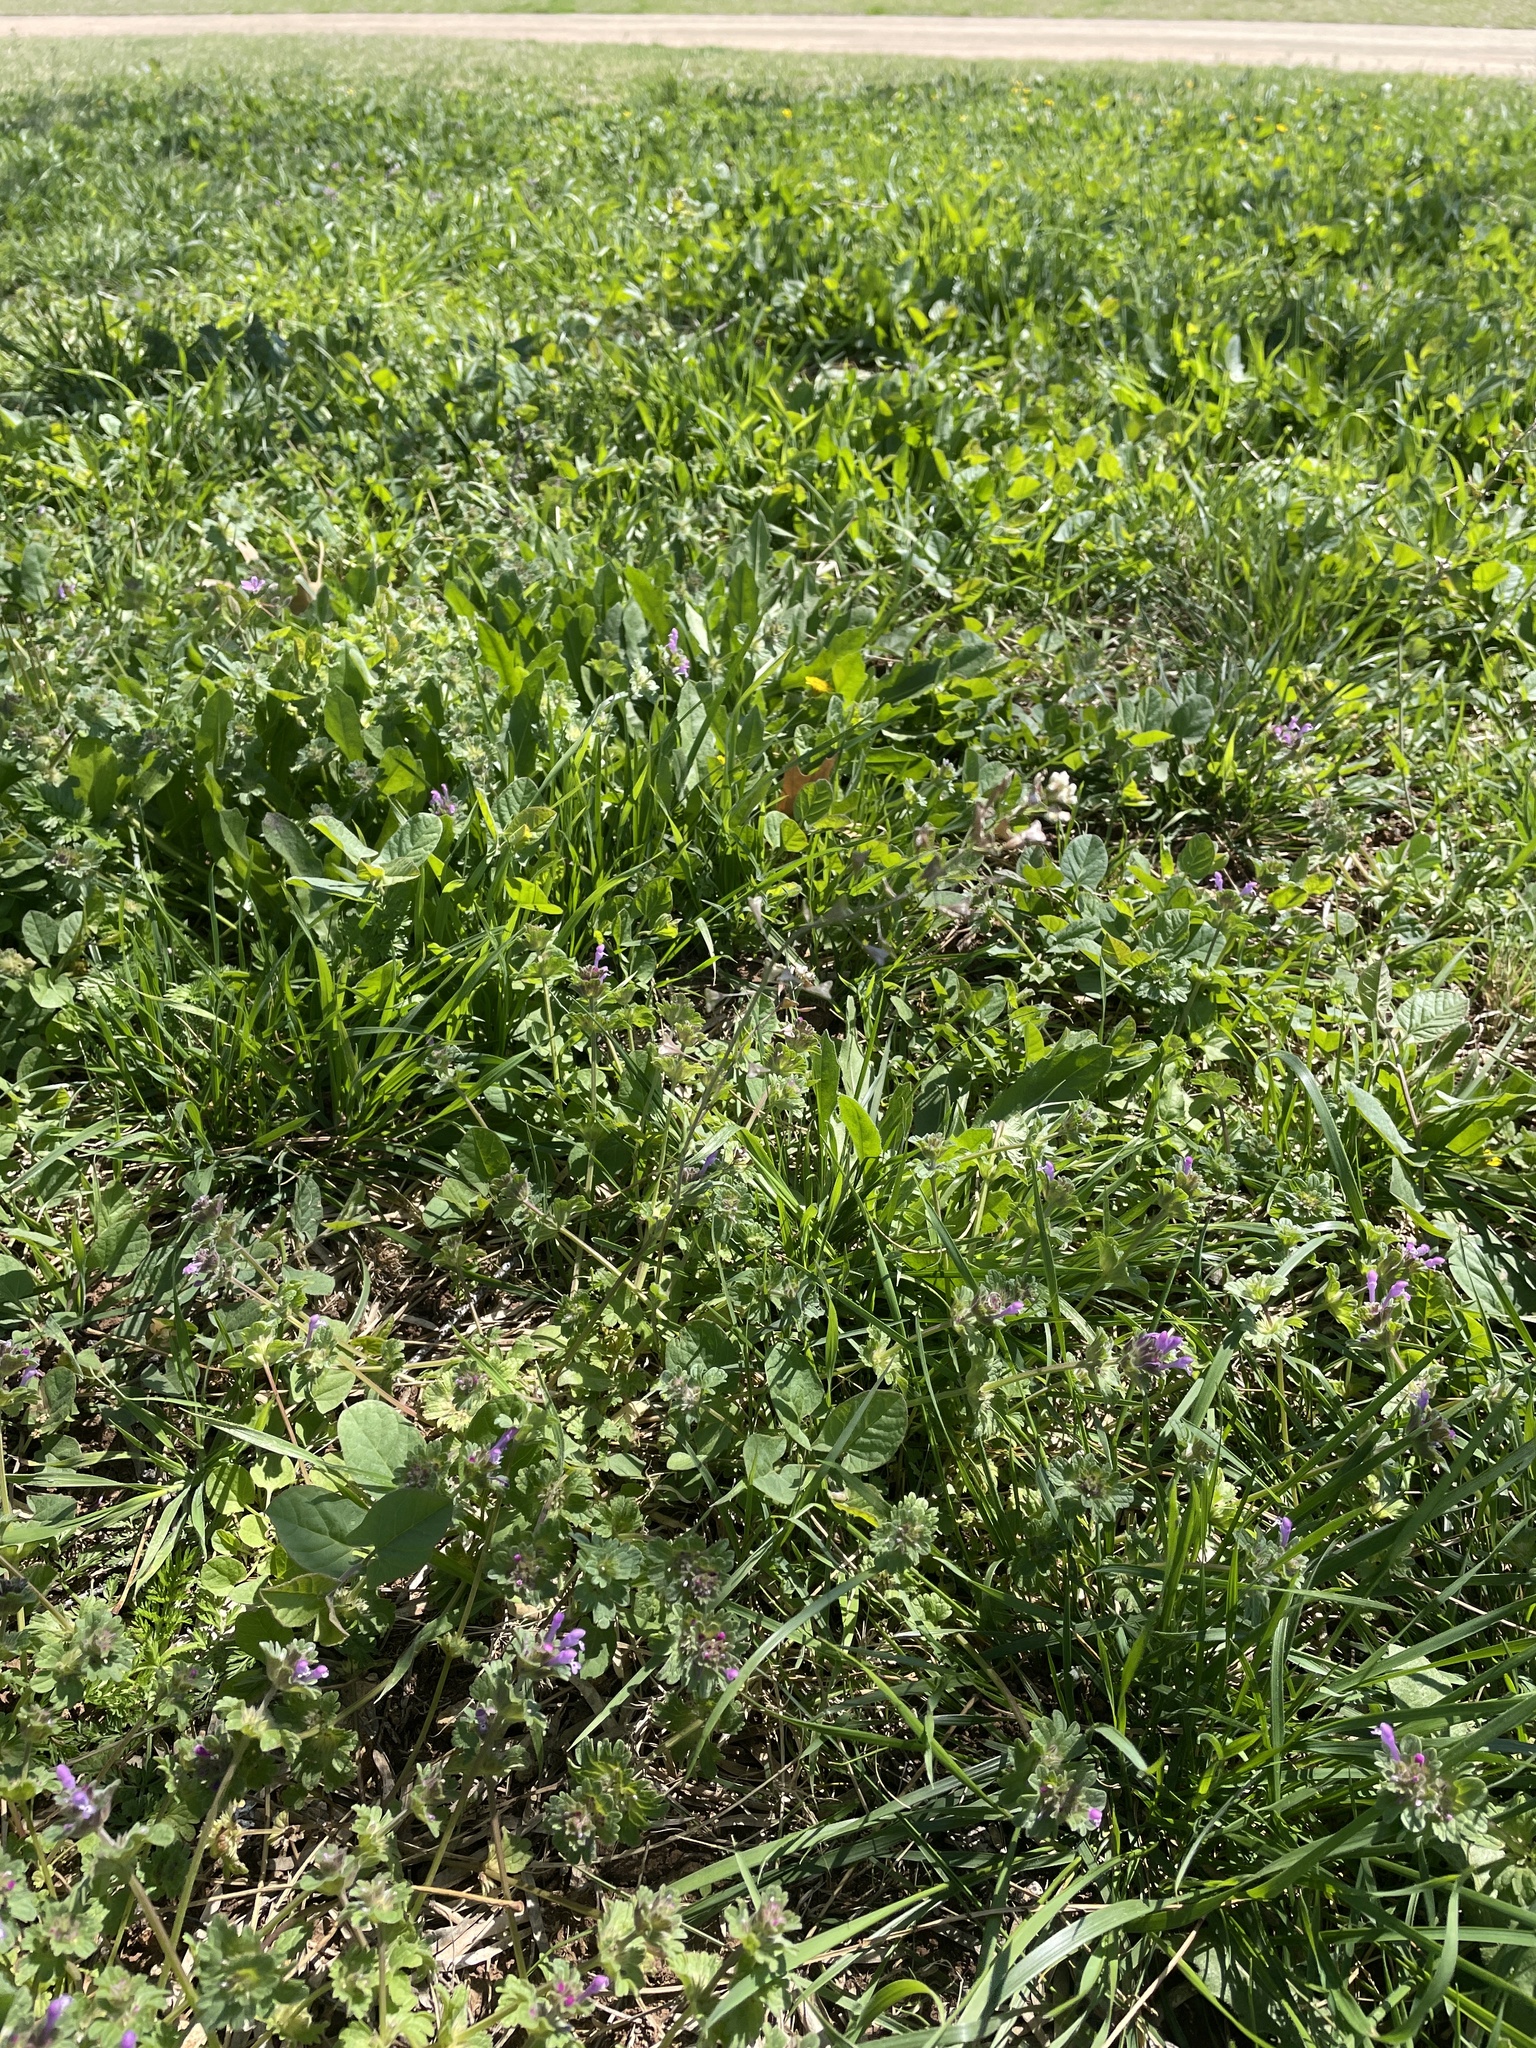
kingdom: Plantae
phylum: Tracheophyta
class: Magnoliopsida
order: Brassicales
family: Brassicaceae
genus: Capsella
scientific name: Capsella bursa-pastoris
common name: Shepherd's purse
